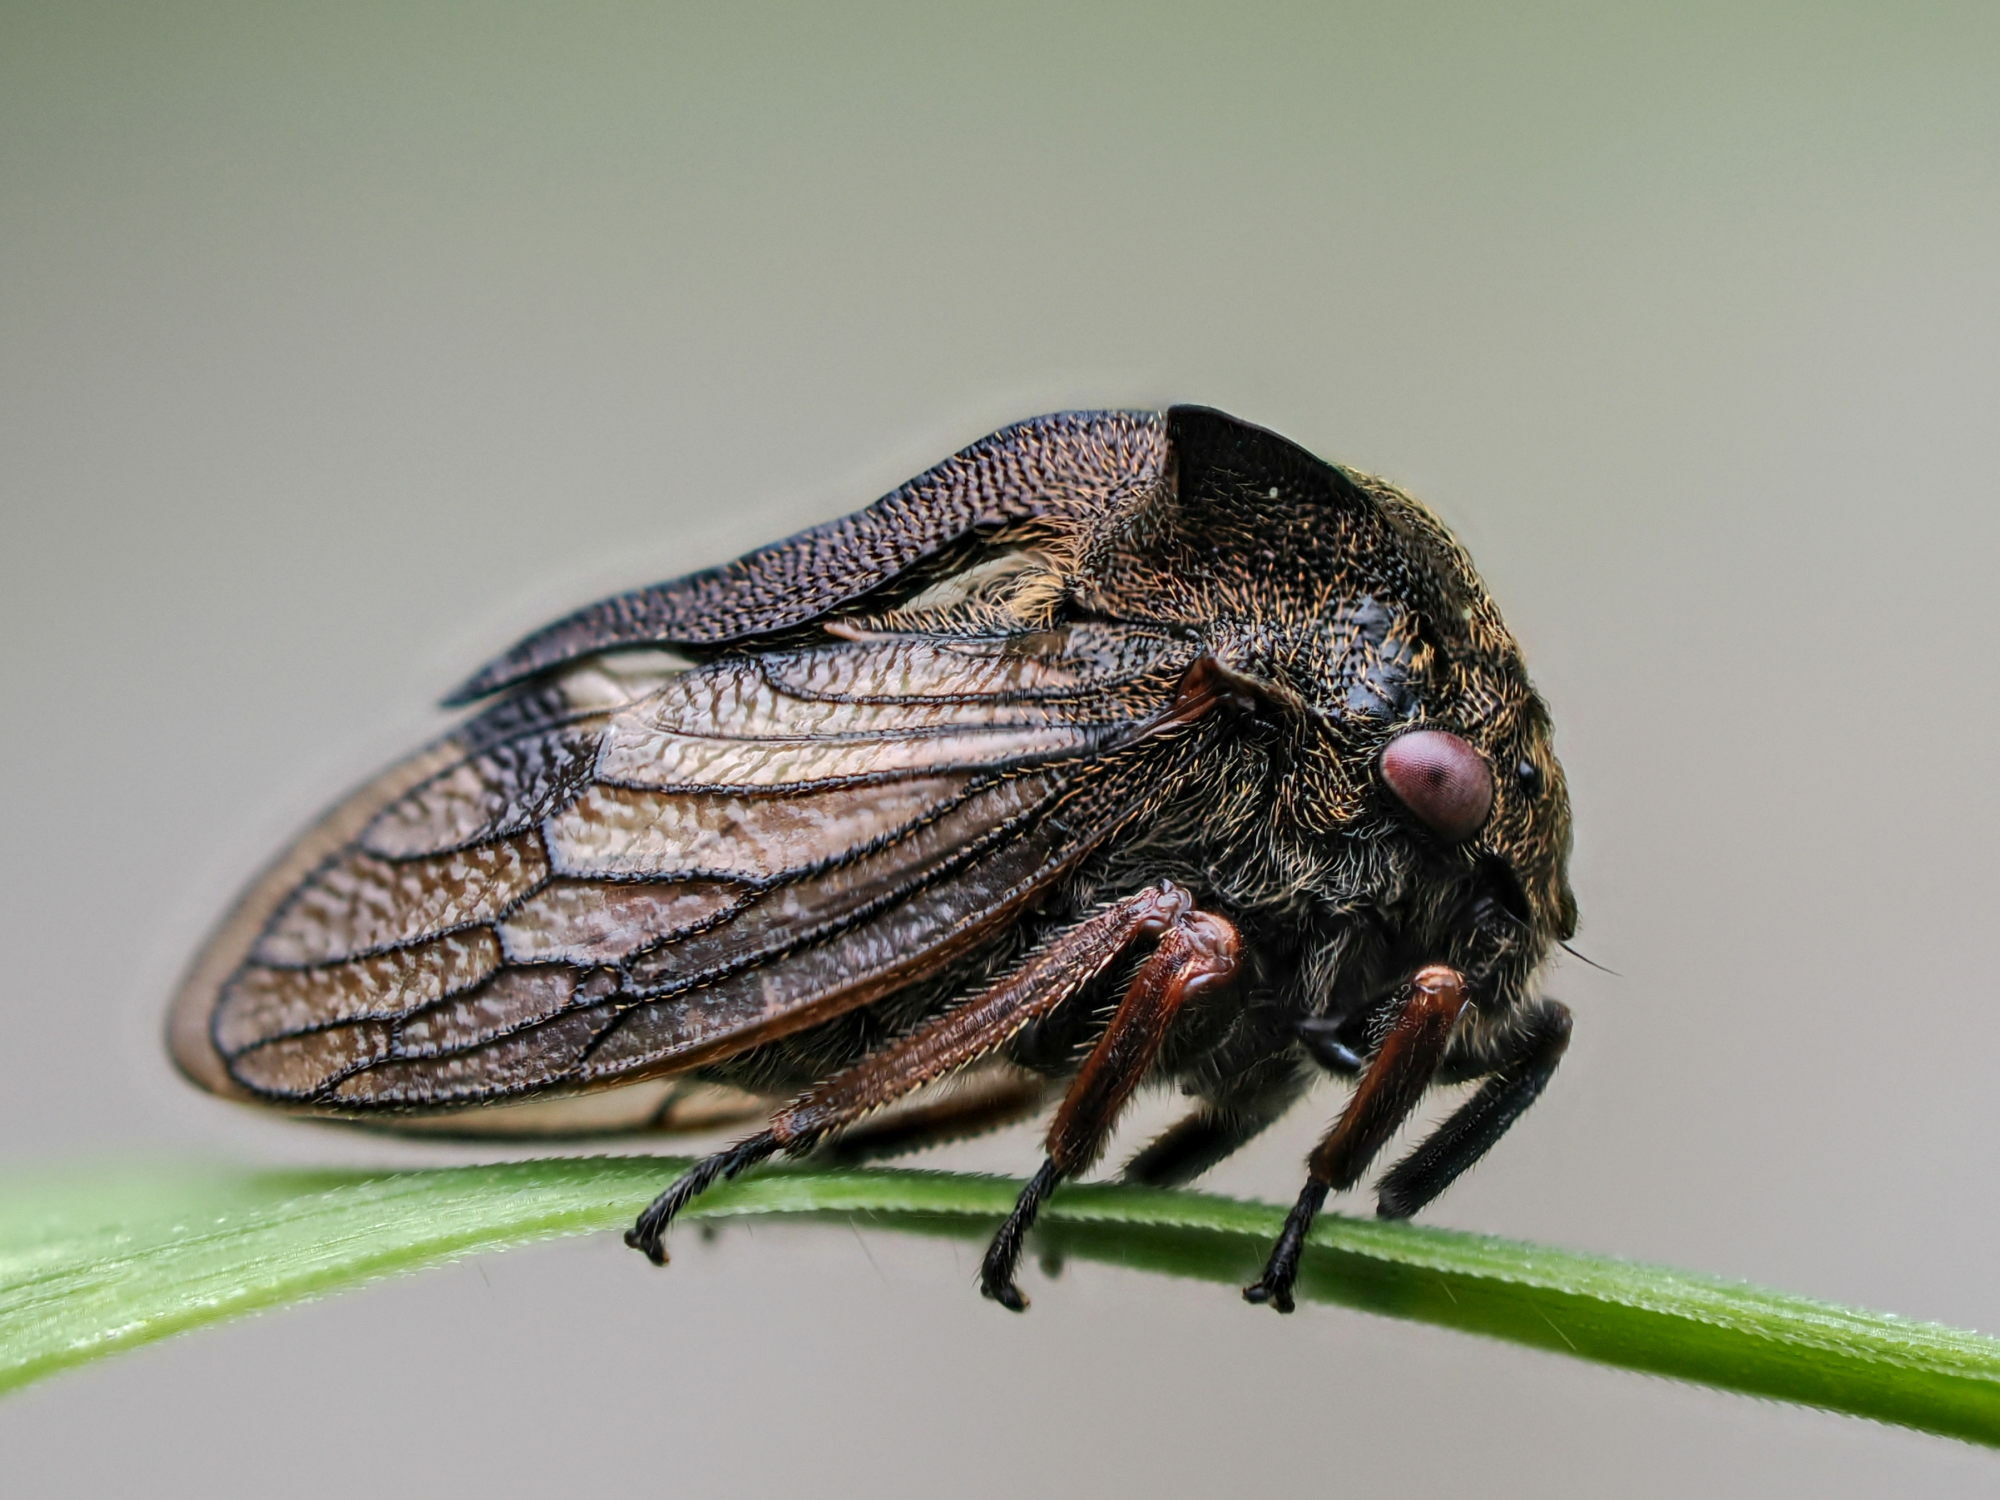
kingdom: Animalia
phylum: Arthropoda
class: Insecta
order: Hemiptera
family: Membracidae
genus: Centrotus
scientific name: Centrotus cornuta
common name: Treehopper
